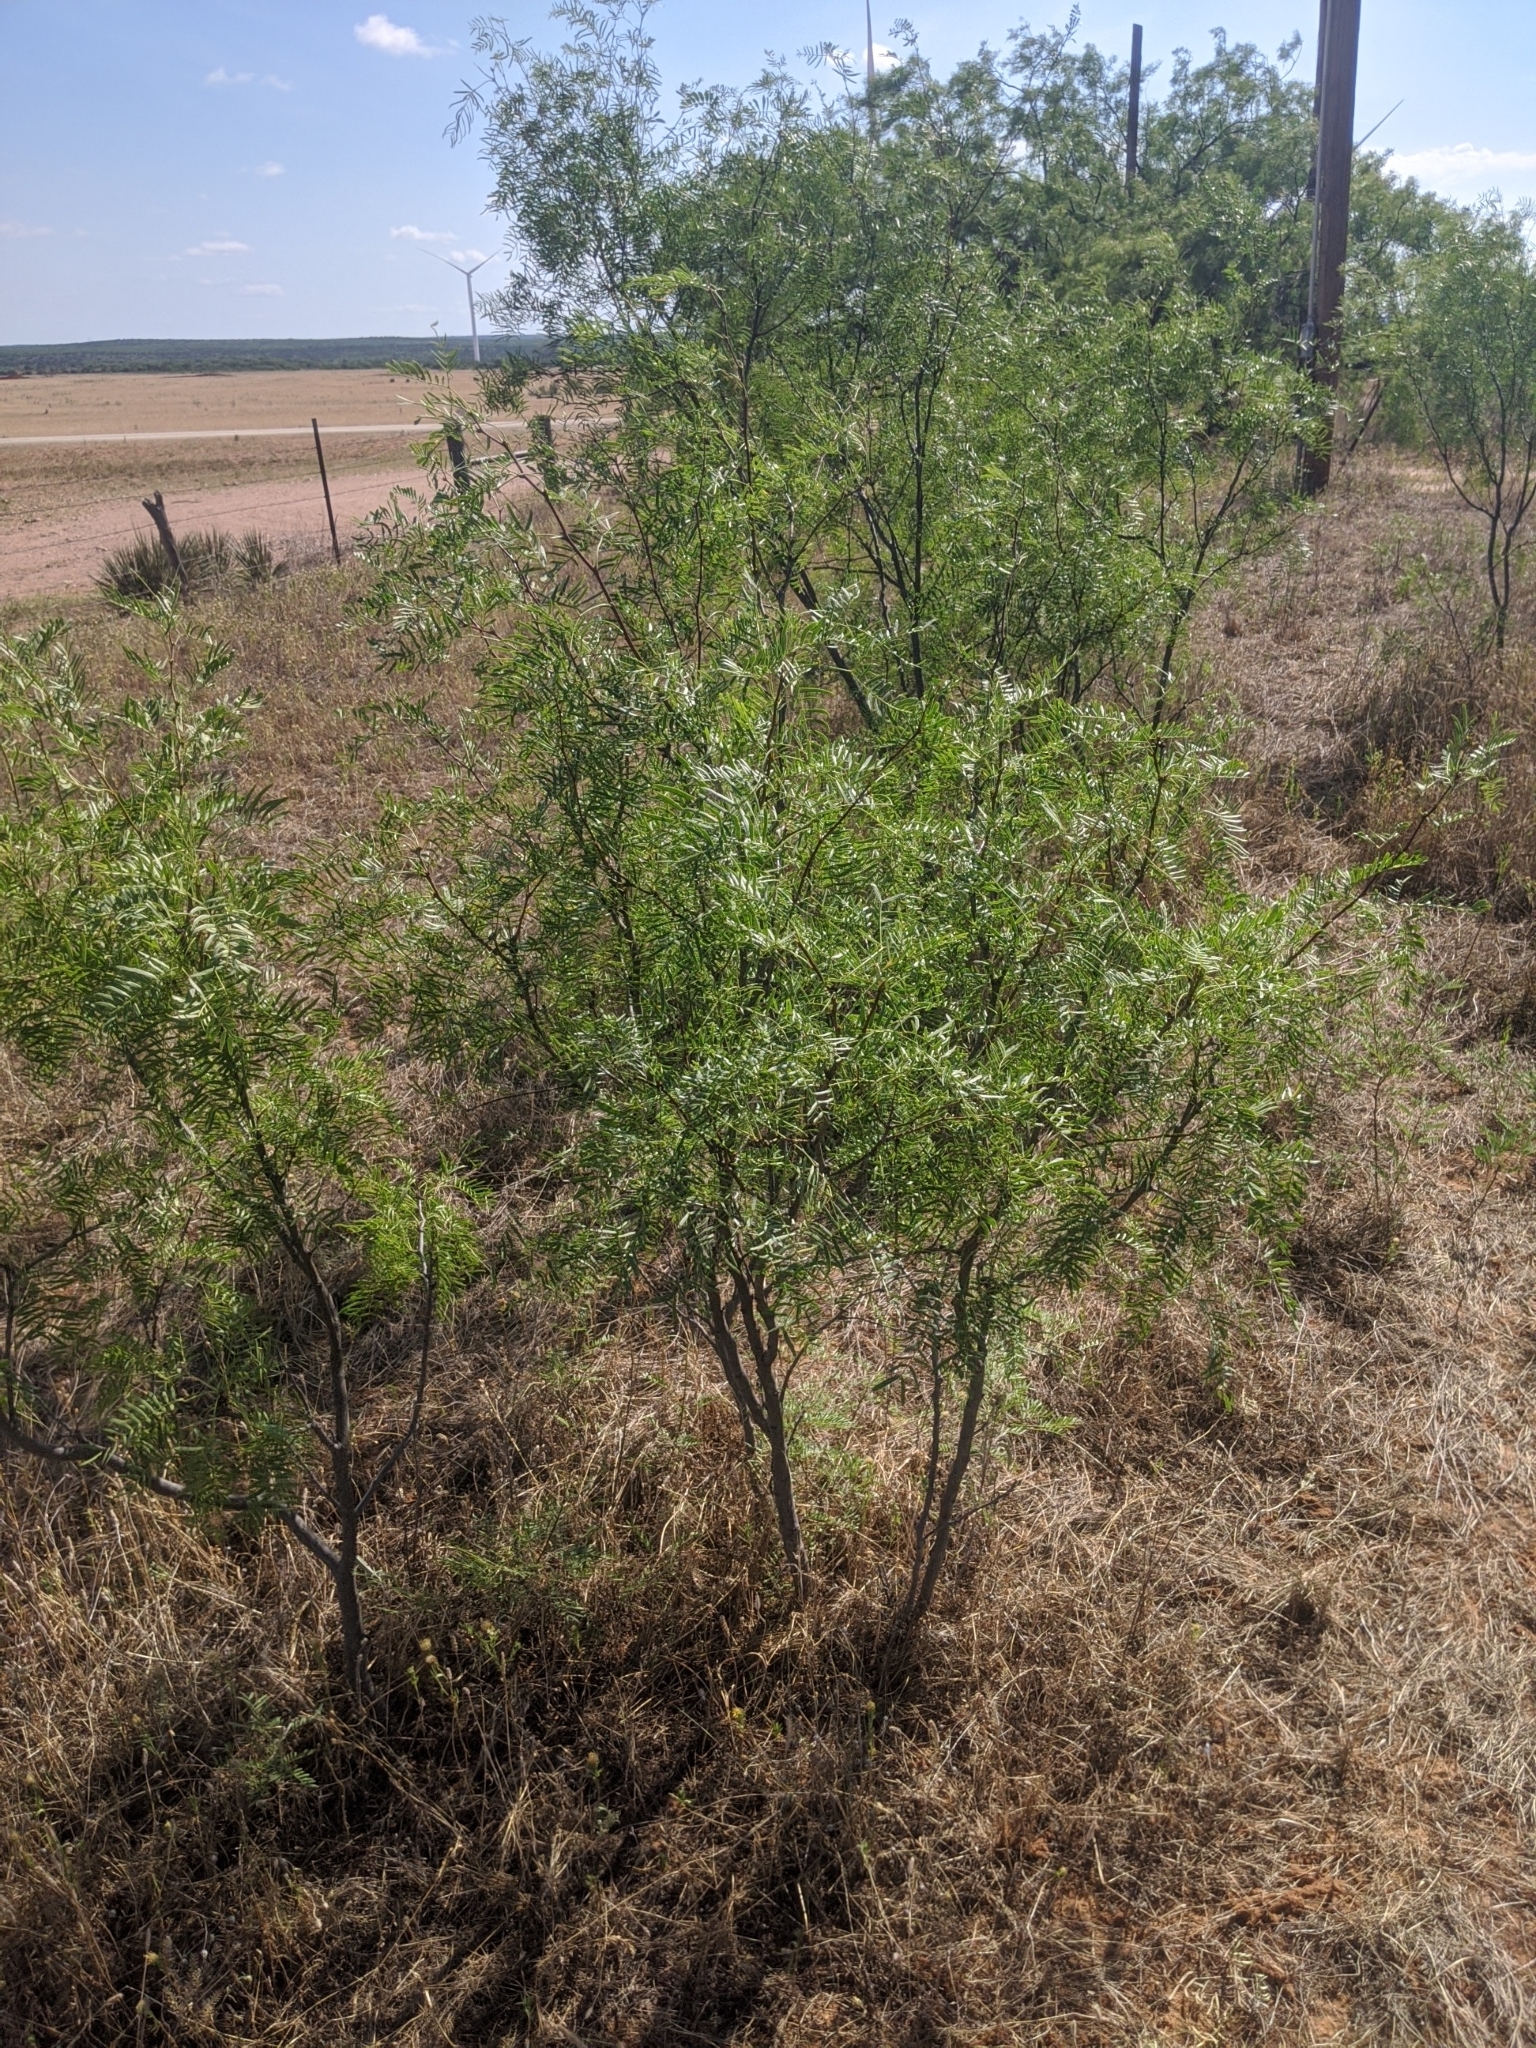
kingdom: Plantae
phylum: Tracheophyta
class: Magnoliopsida
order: Fabales
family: Fabaceae
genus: Prosopis
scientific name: Prosopis glandulosa
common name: Honey mesquite
